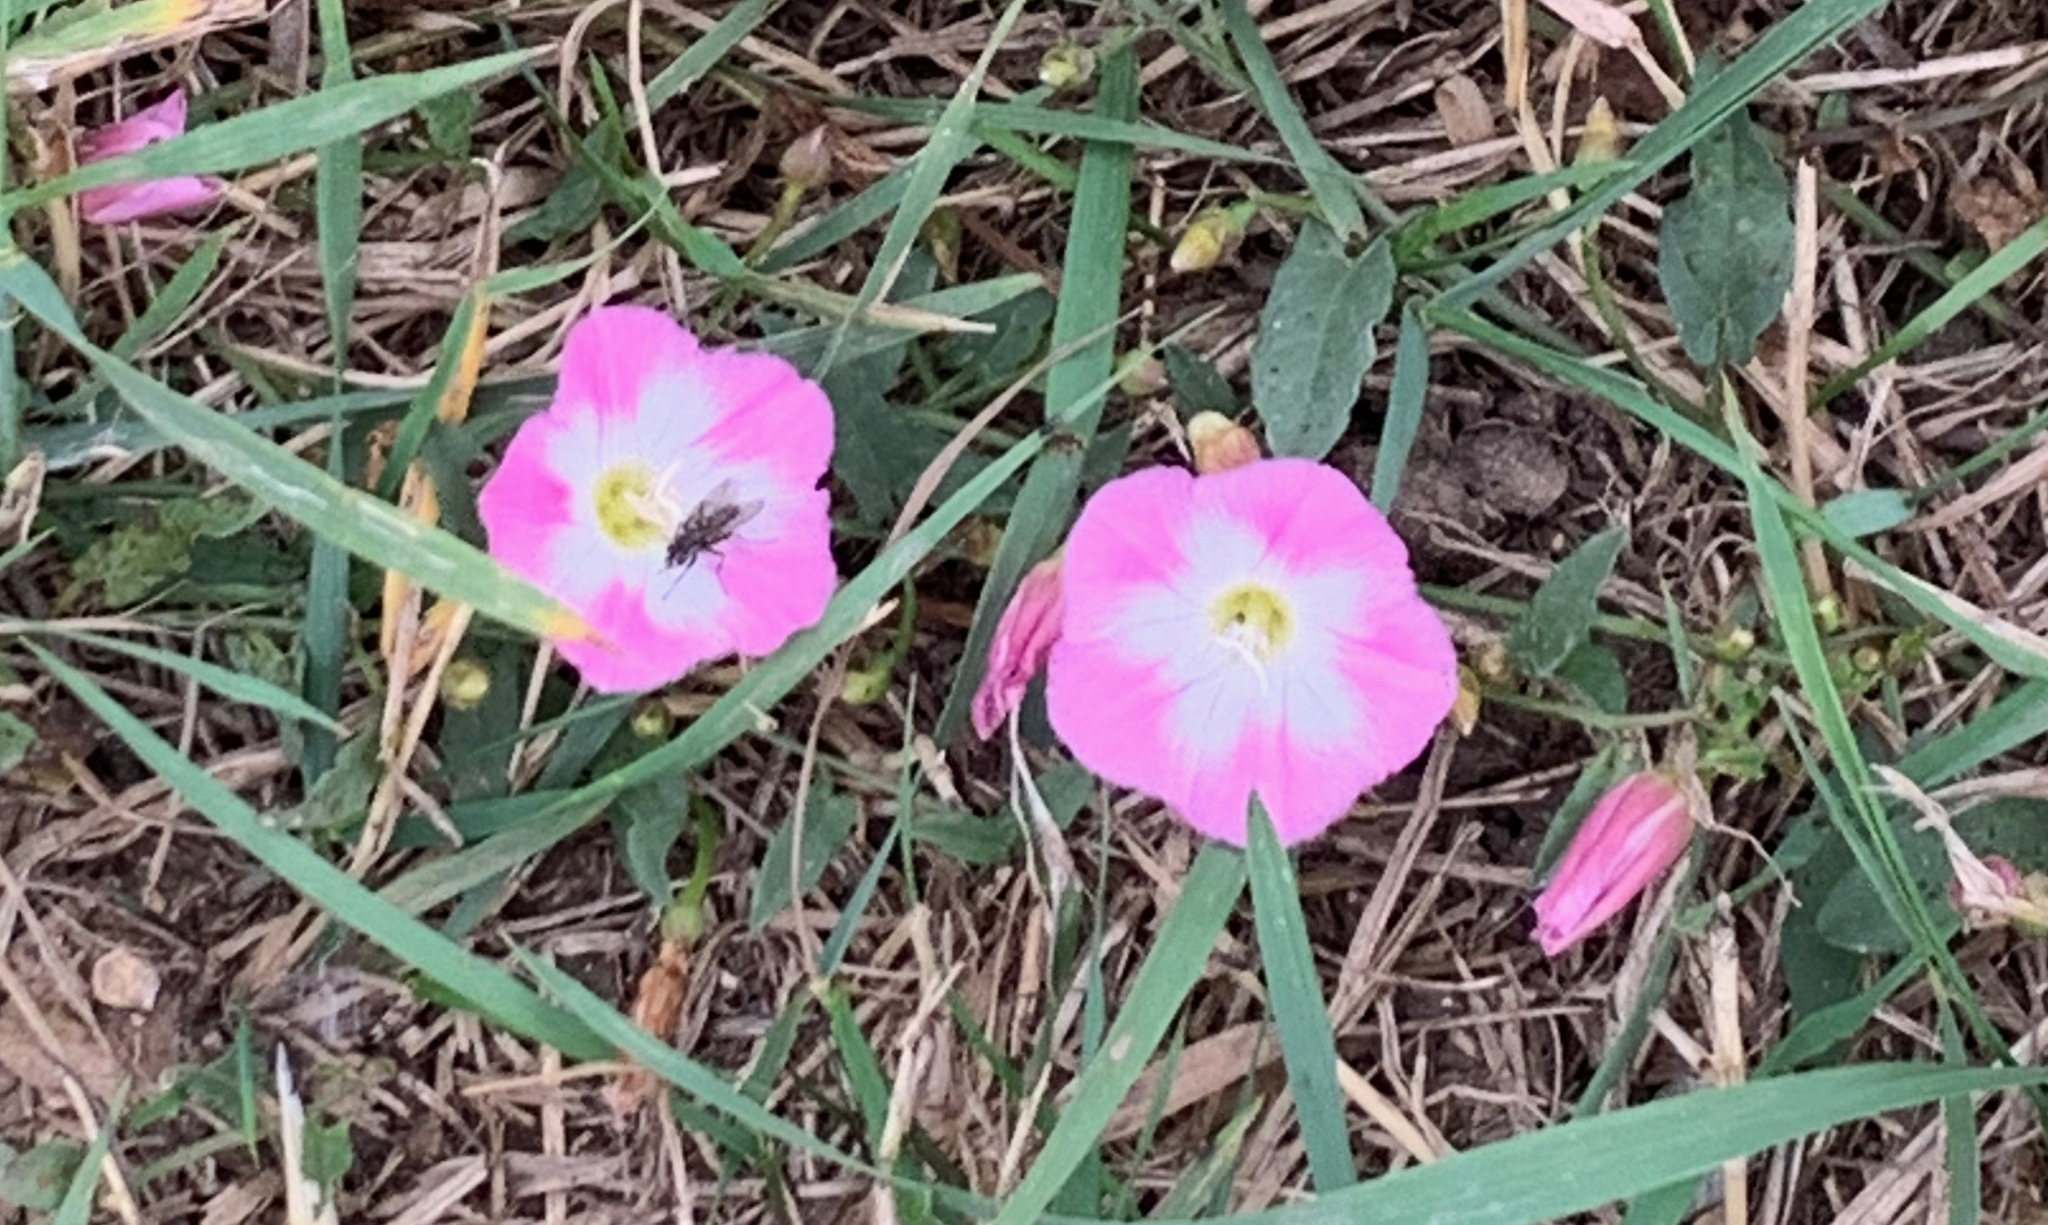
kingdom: Plantae
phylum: Tracheophyta
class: Magnoliopsida
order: Solanales
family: Convolvulaceae
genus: Convolvulus
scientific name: Convolvulus arvensis
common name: Field bindweed
